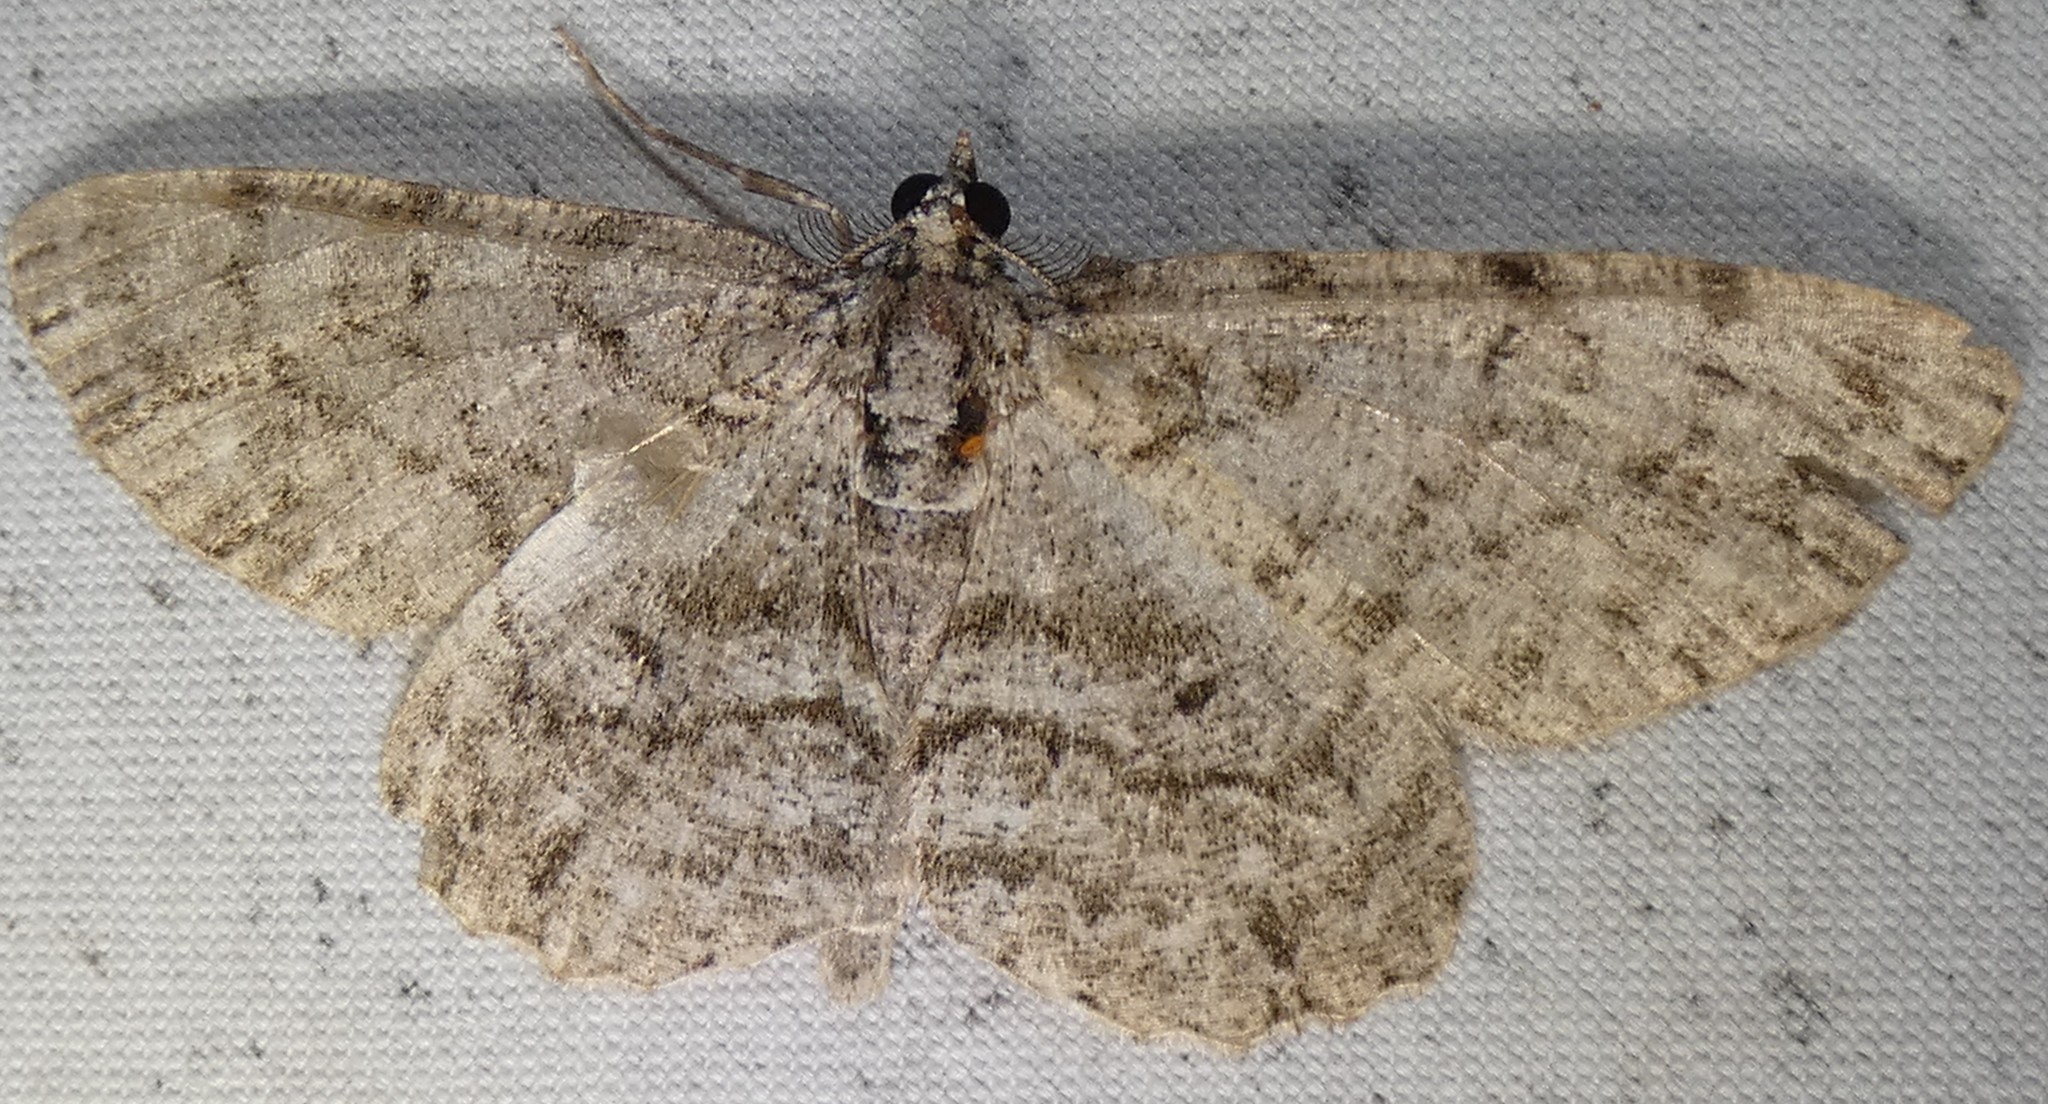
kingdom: Animalia
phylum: Arthropoda
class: Insecta
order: Lepidoptera
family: Geometridae
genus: Protoboarmia
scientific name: Protoboarmia porcelaria
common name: Porcelain gray
